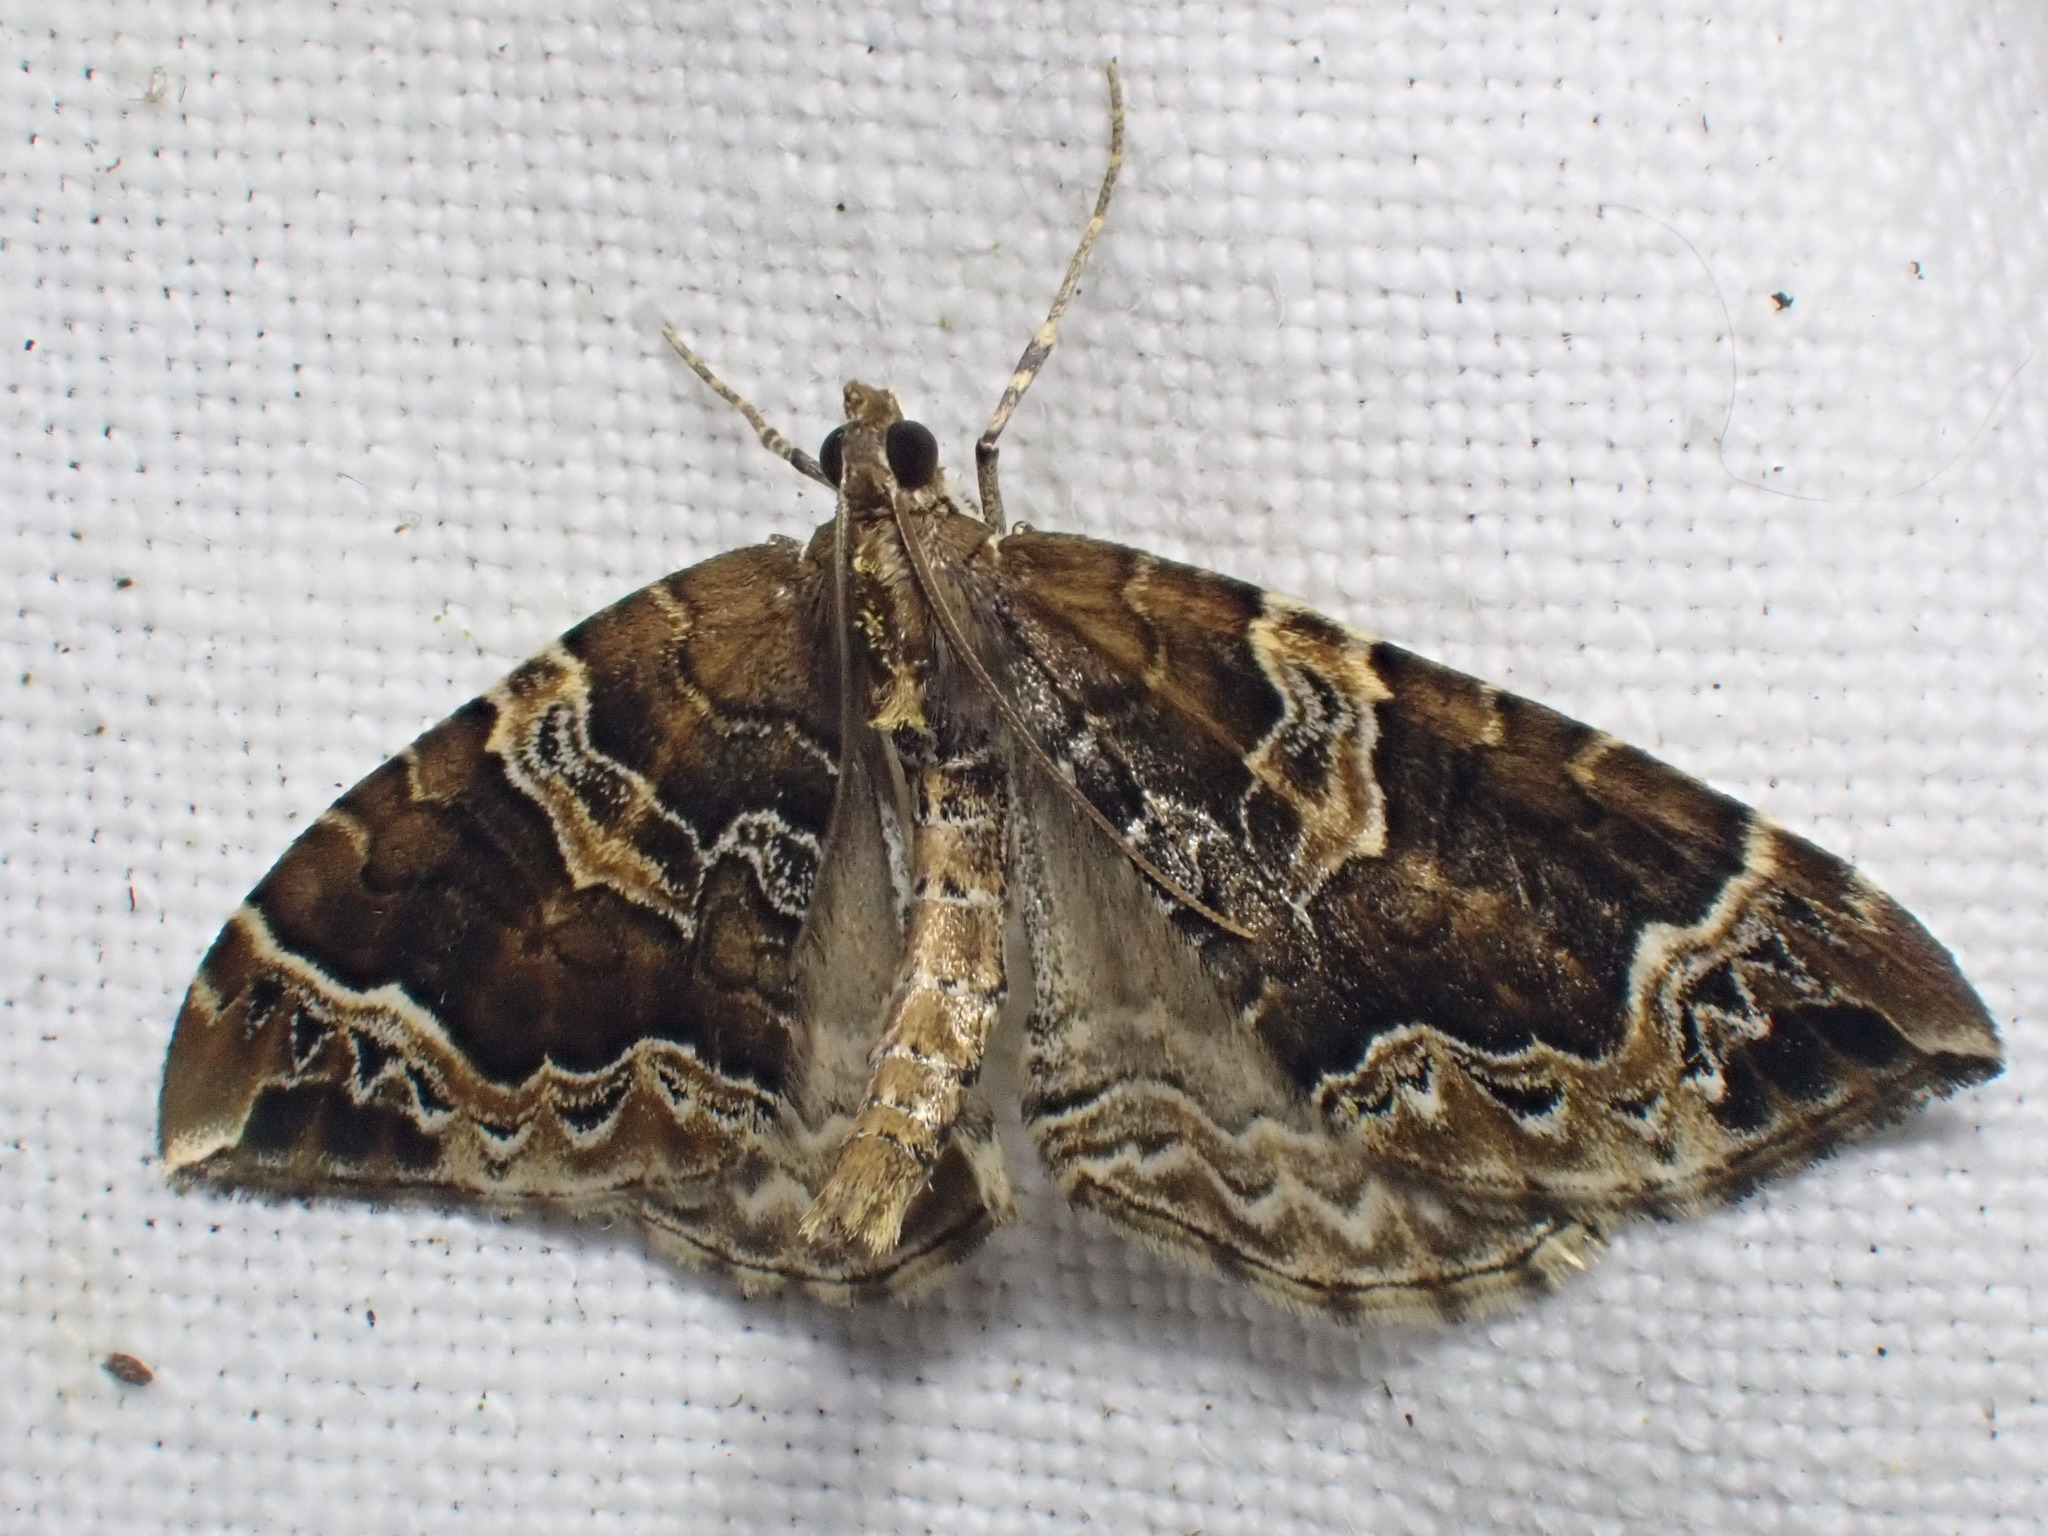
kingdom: Animalia
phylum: Arthropoda
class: Insecta
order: Lepidoptera
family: Geometridae
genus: Eulithis
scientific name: Eulithis prunata
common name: Phoenix
